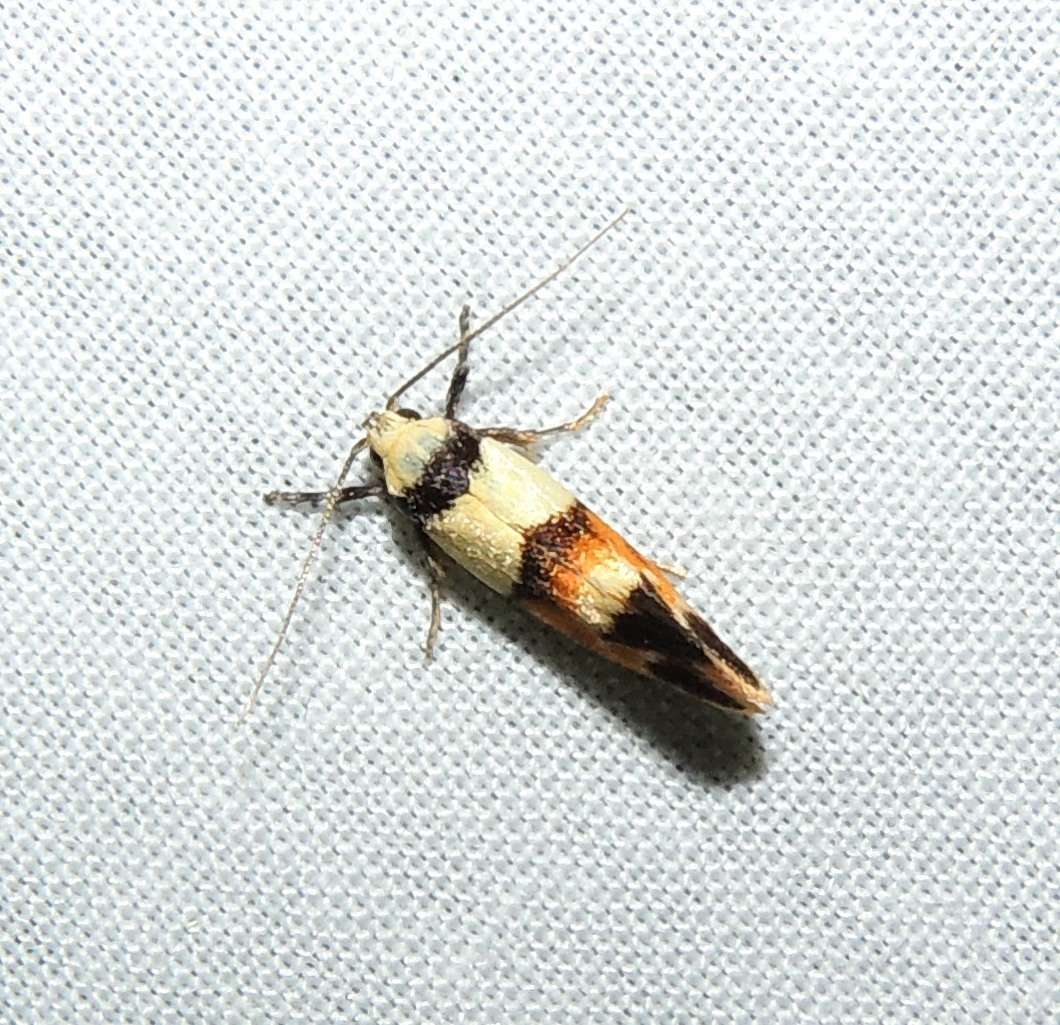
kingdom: Animalia
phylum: Arthropoda
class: Insecta
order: Lepidoptera
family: Oecophoridae
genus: Crepidosceles
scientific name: Crepidosceles glycydora
